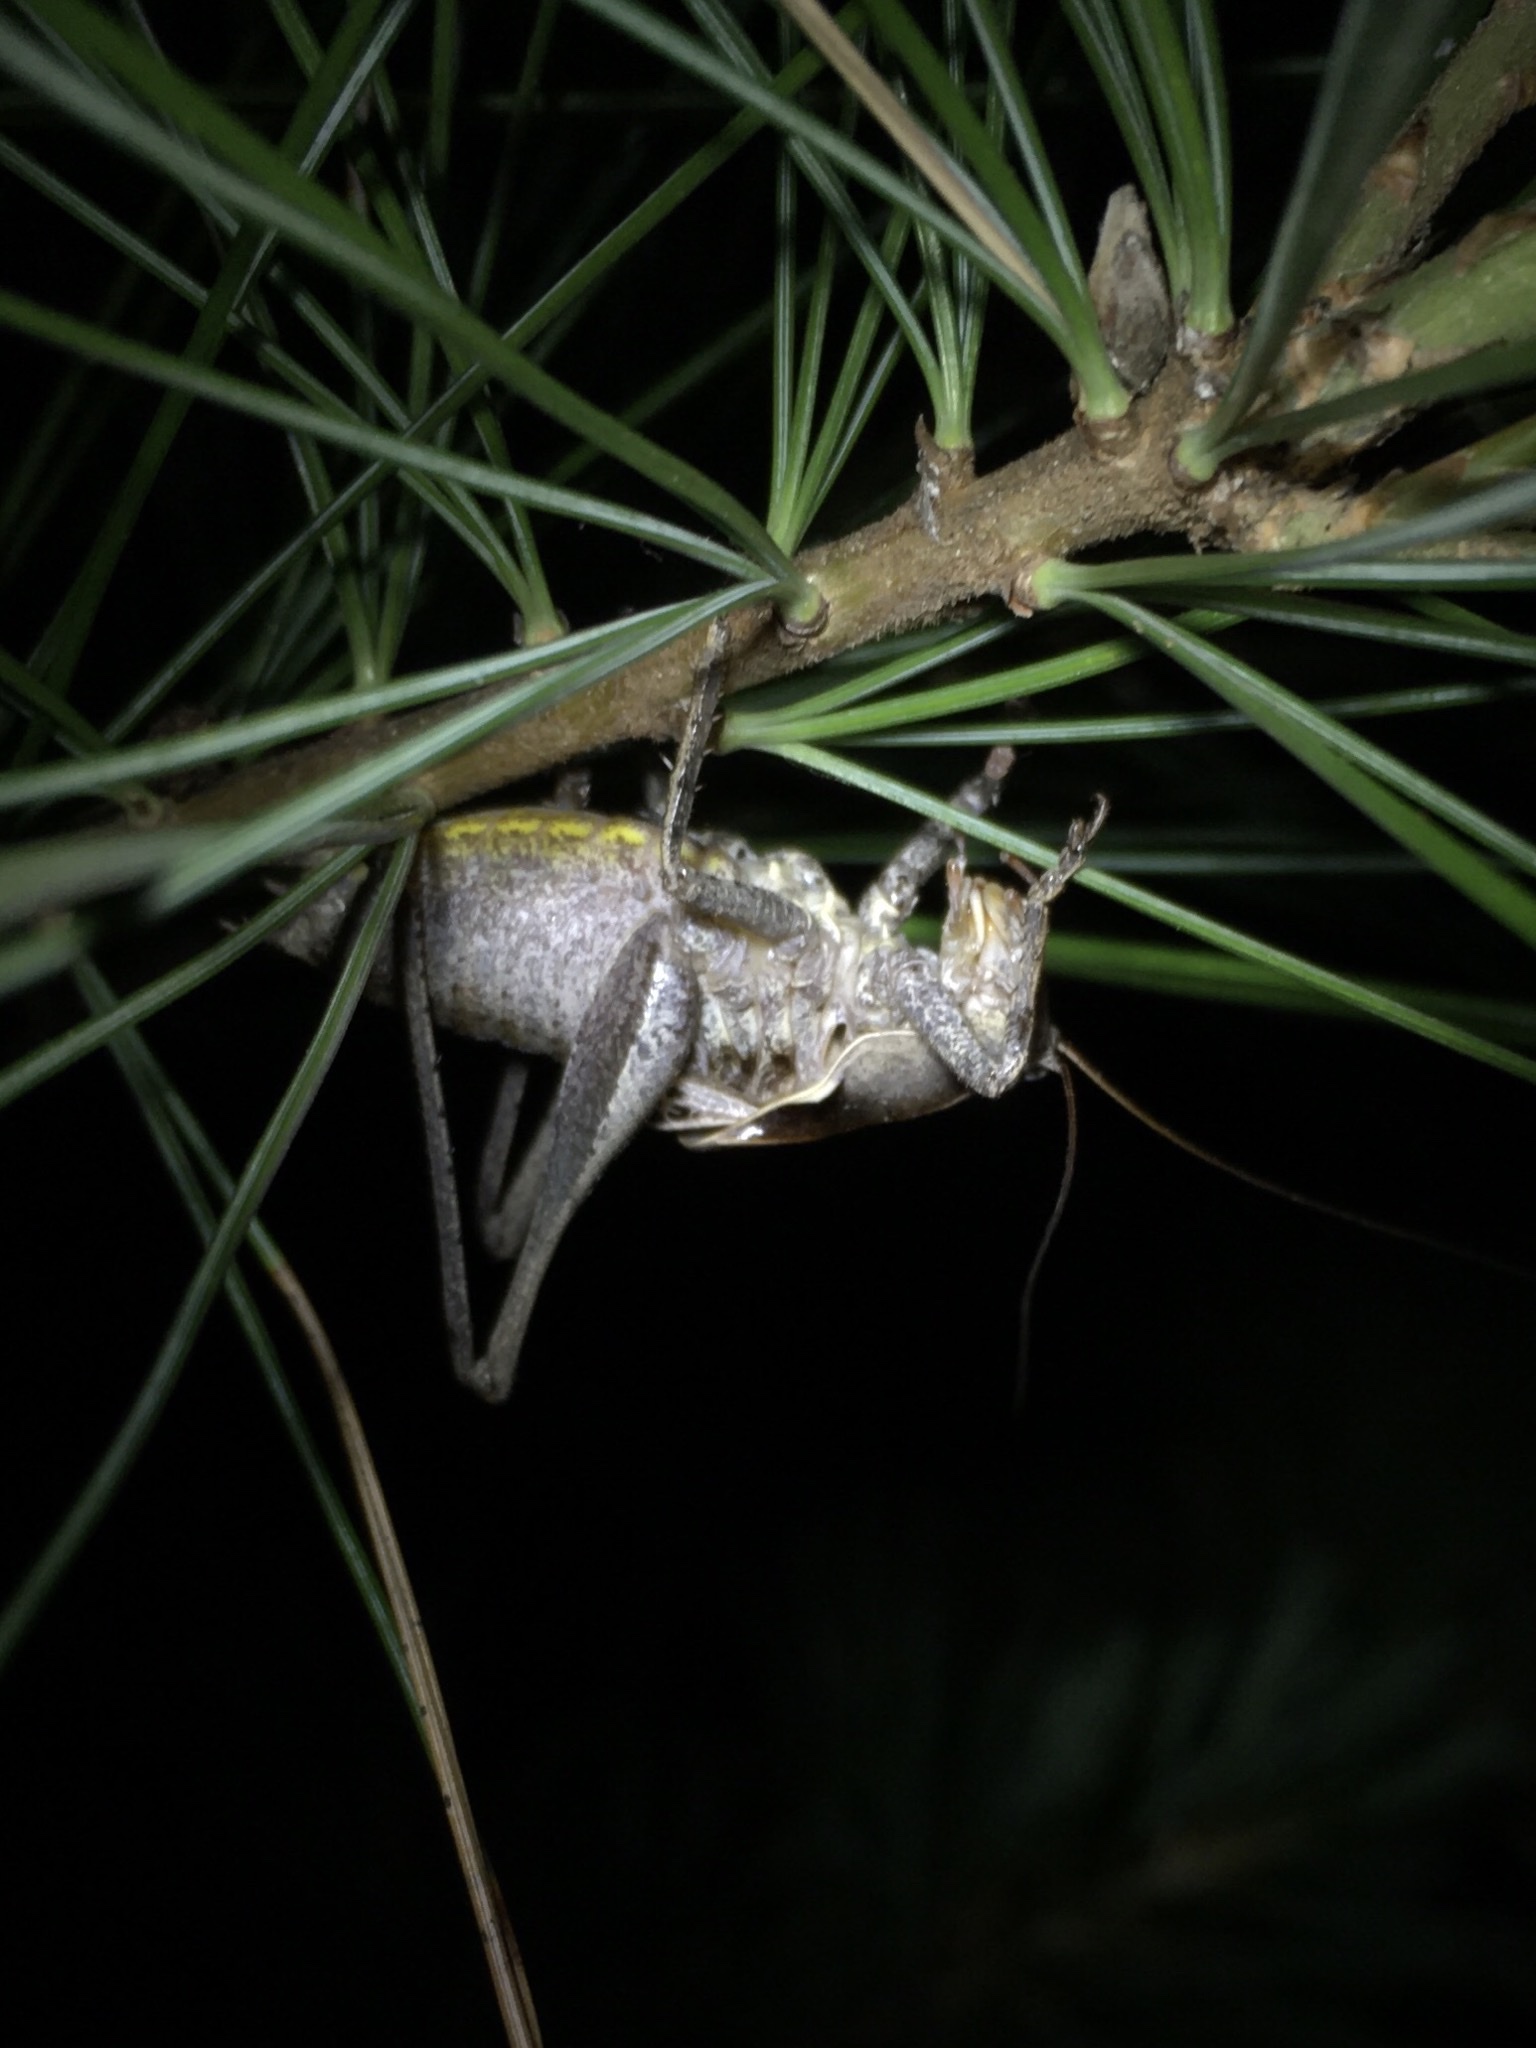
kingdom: Animalia
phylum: Arthropoda
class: Insecta
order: Orthoptera
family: Tettigoniidae
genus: Atlanticus
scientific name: Atlanticus davisi
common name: Davis's shield-bearer
